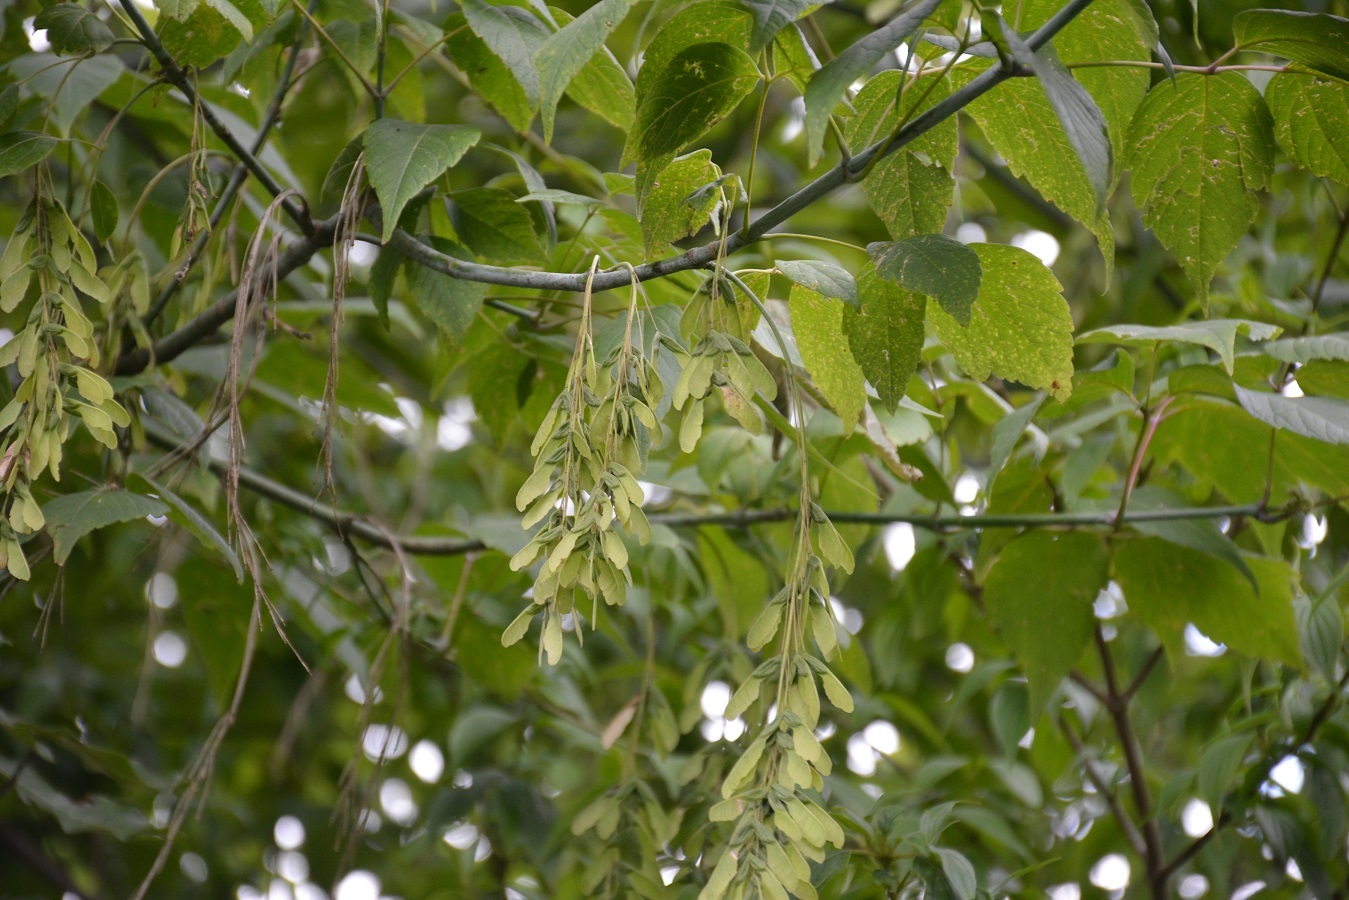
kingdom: Plantae
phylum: Tracheophyta
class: Magnoliopsida
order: Sapindales
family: Sapindaceae
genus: Acer
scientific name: Acer negundo
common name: Ashleaf maple
